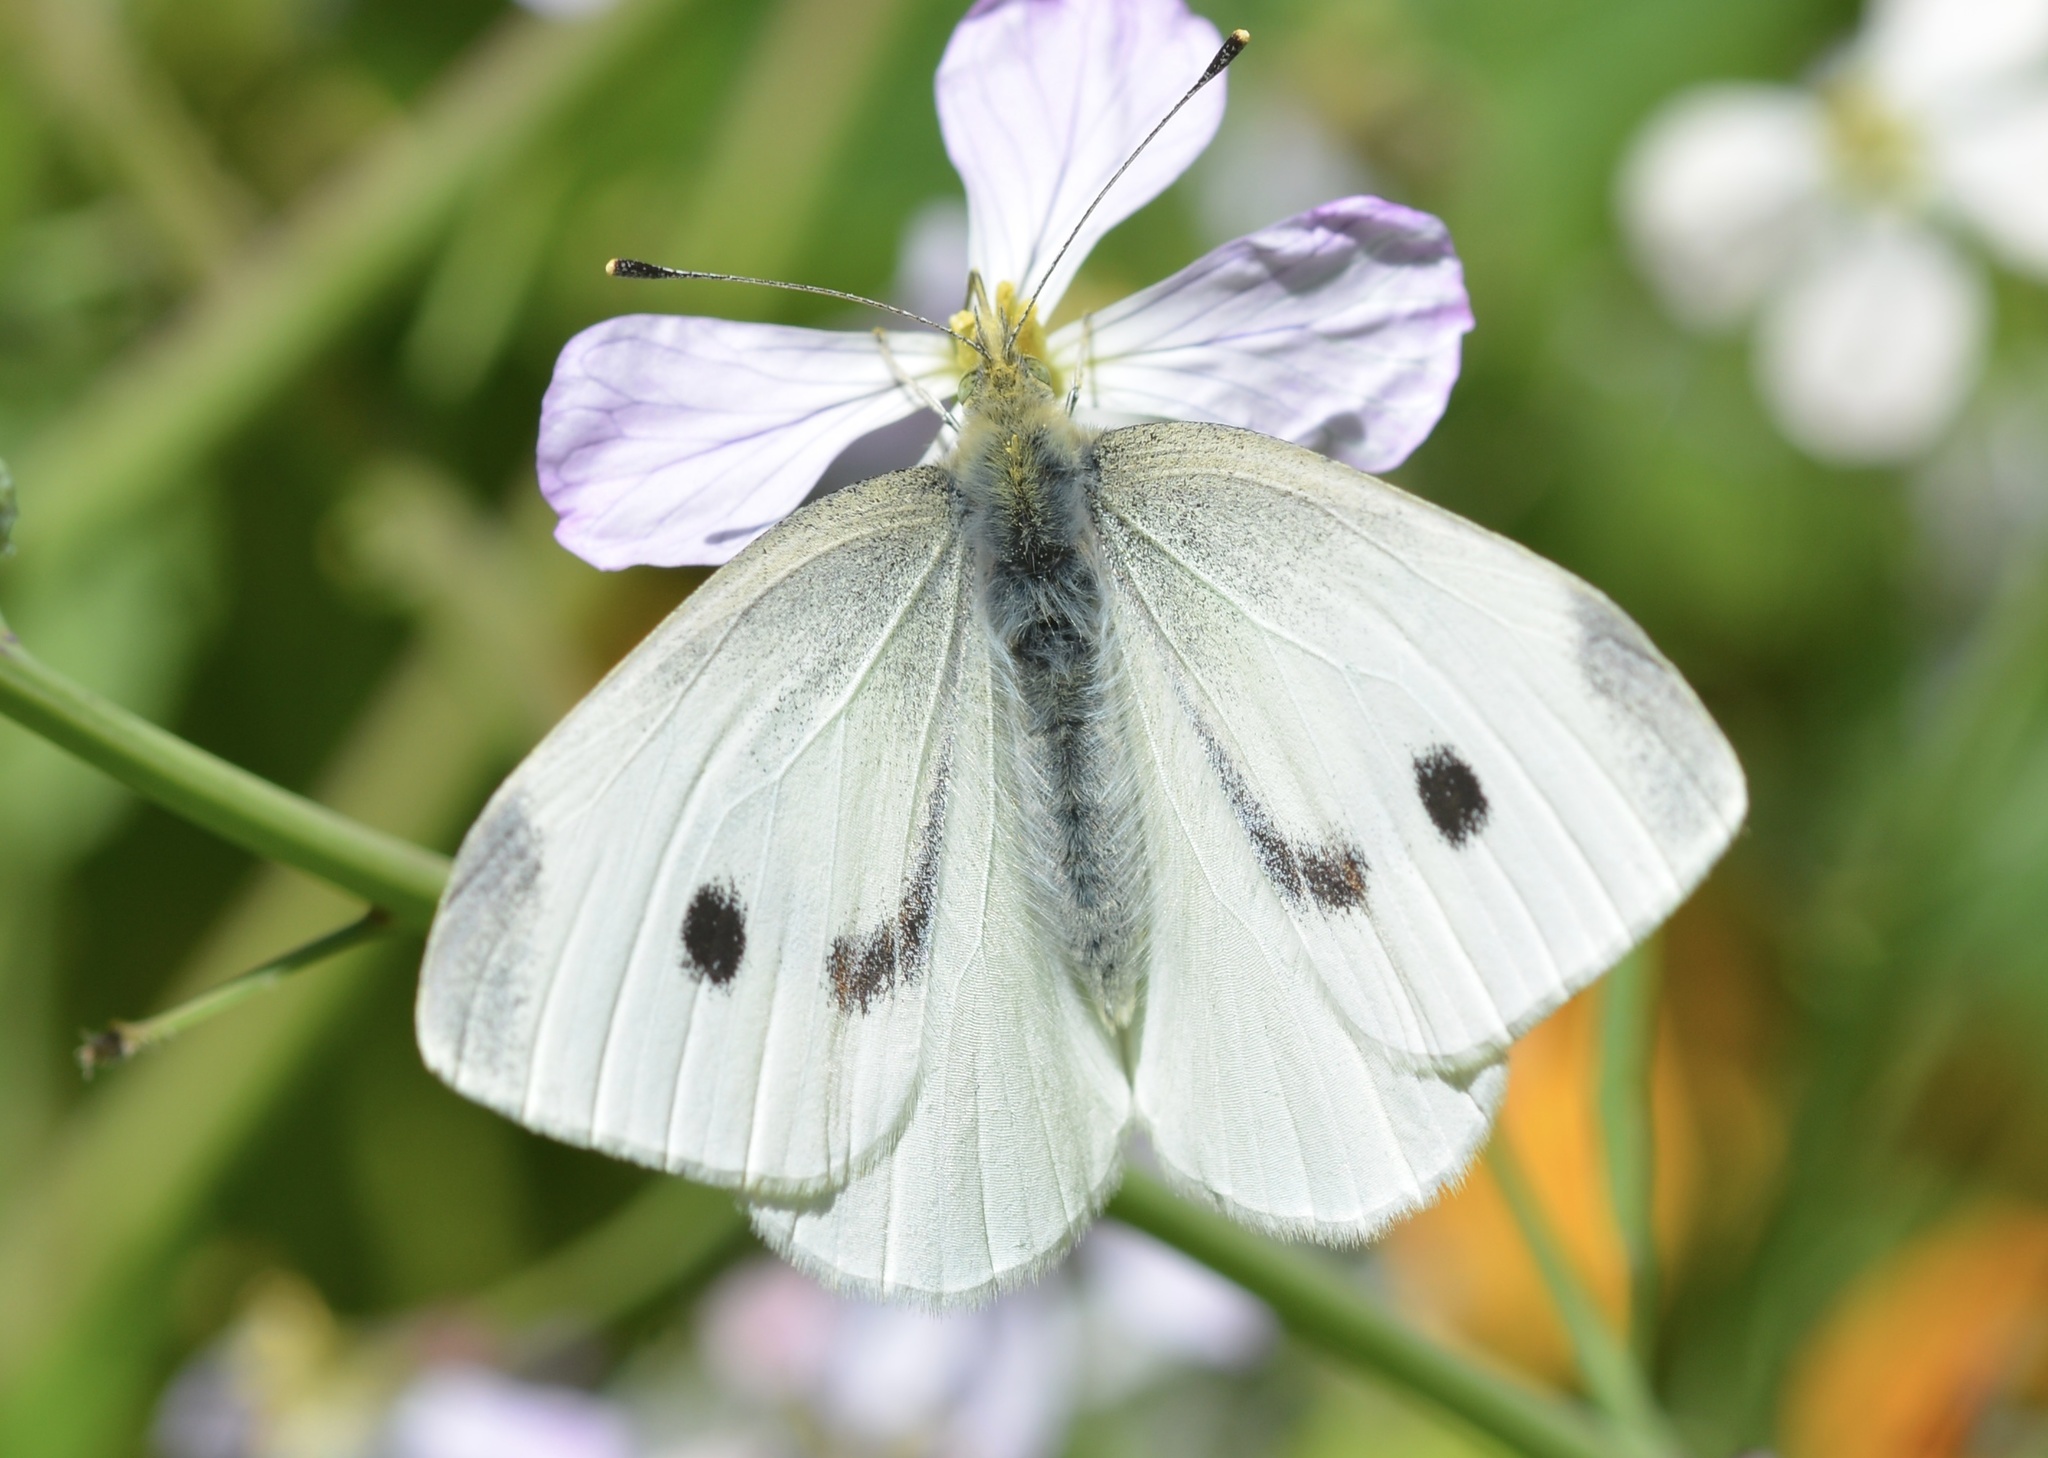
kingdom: Animalia
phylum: Arthropoda
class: Insecta
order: Lepidoptera
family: Pieridae
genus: Pieris
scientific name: Pieris rapae
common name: Small white
